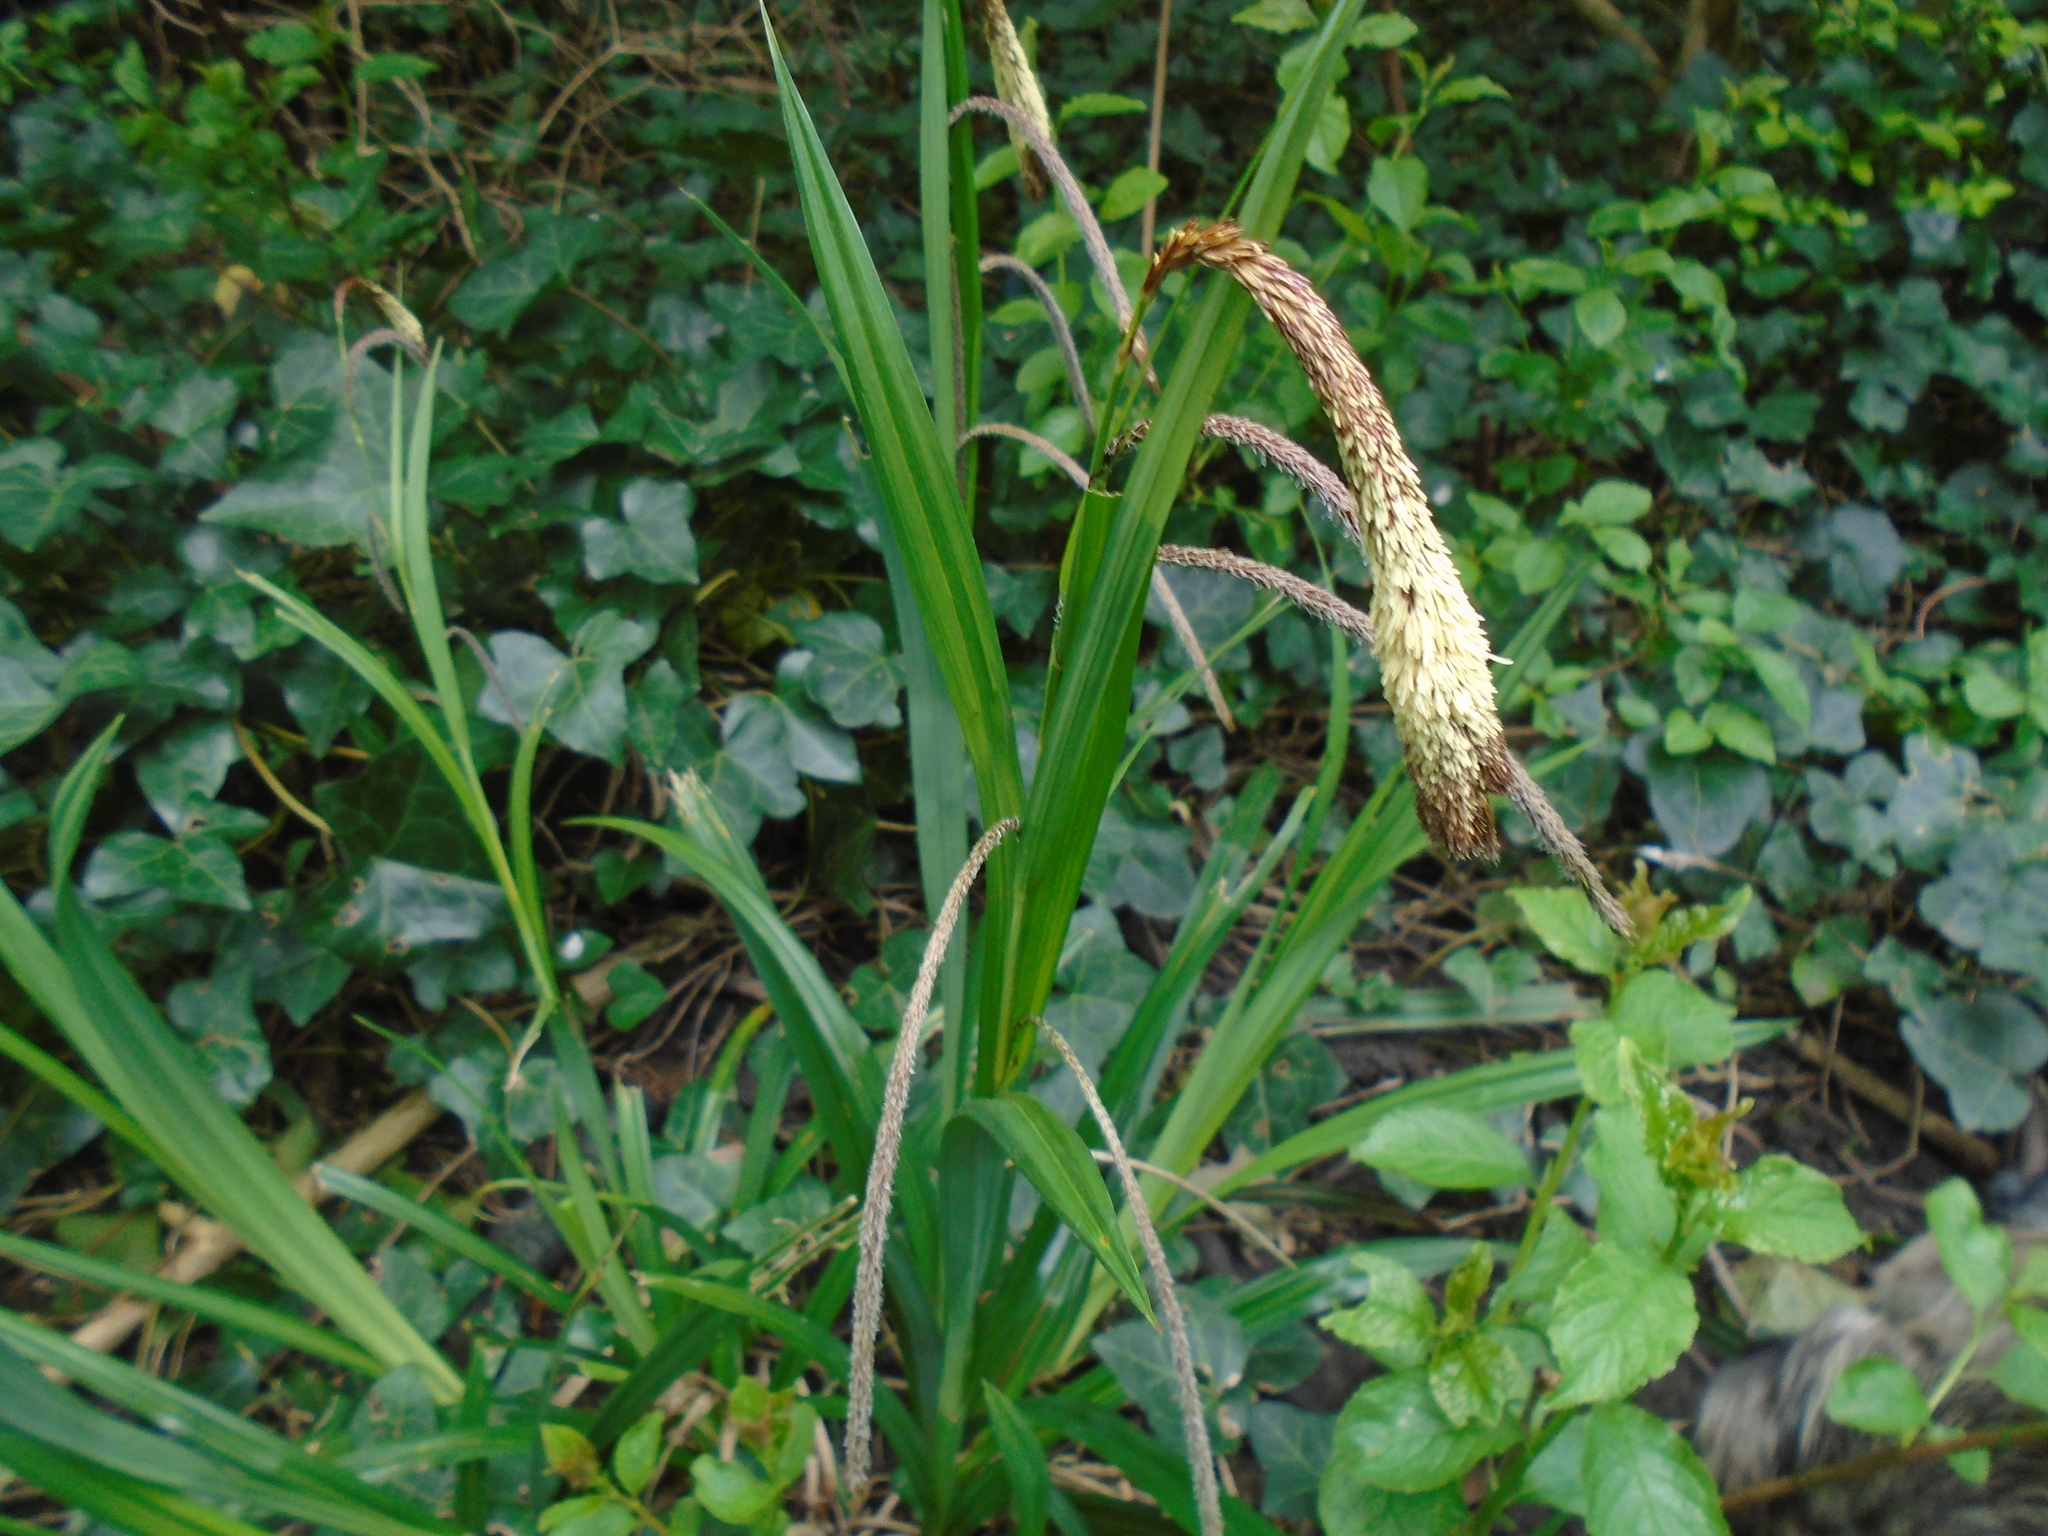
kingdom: Plantae
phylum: Tracheophyta
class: Liliopsida
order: Poales
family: Cyperaceae
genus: Carex
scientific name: Carex pendula
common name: Pendulous sedge
